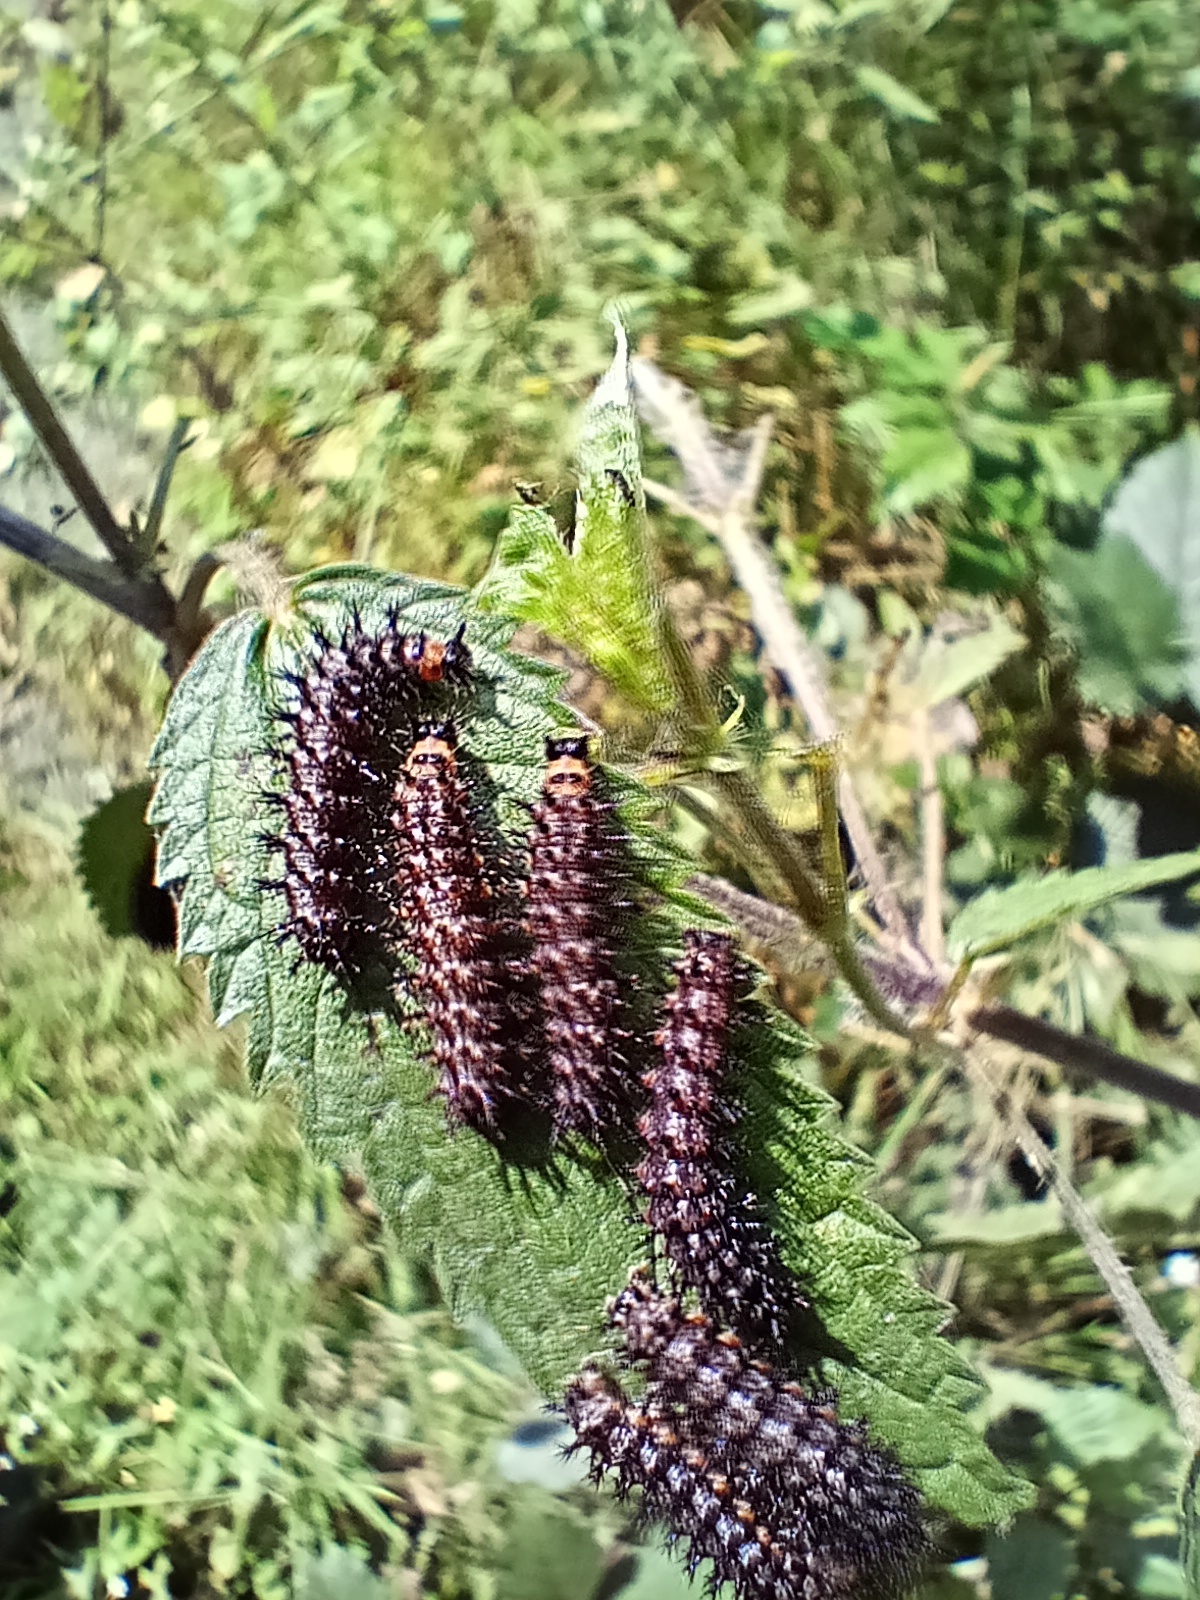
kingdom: Animalia
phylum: Arthropoda
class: Insecta
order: Lepidoptera
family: Nymphalidae
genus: Araschnia
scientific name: Araschnia levana
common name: Map butterfly
